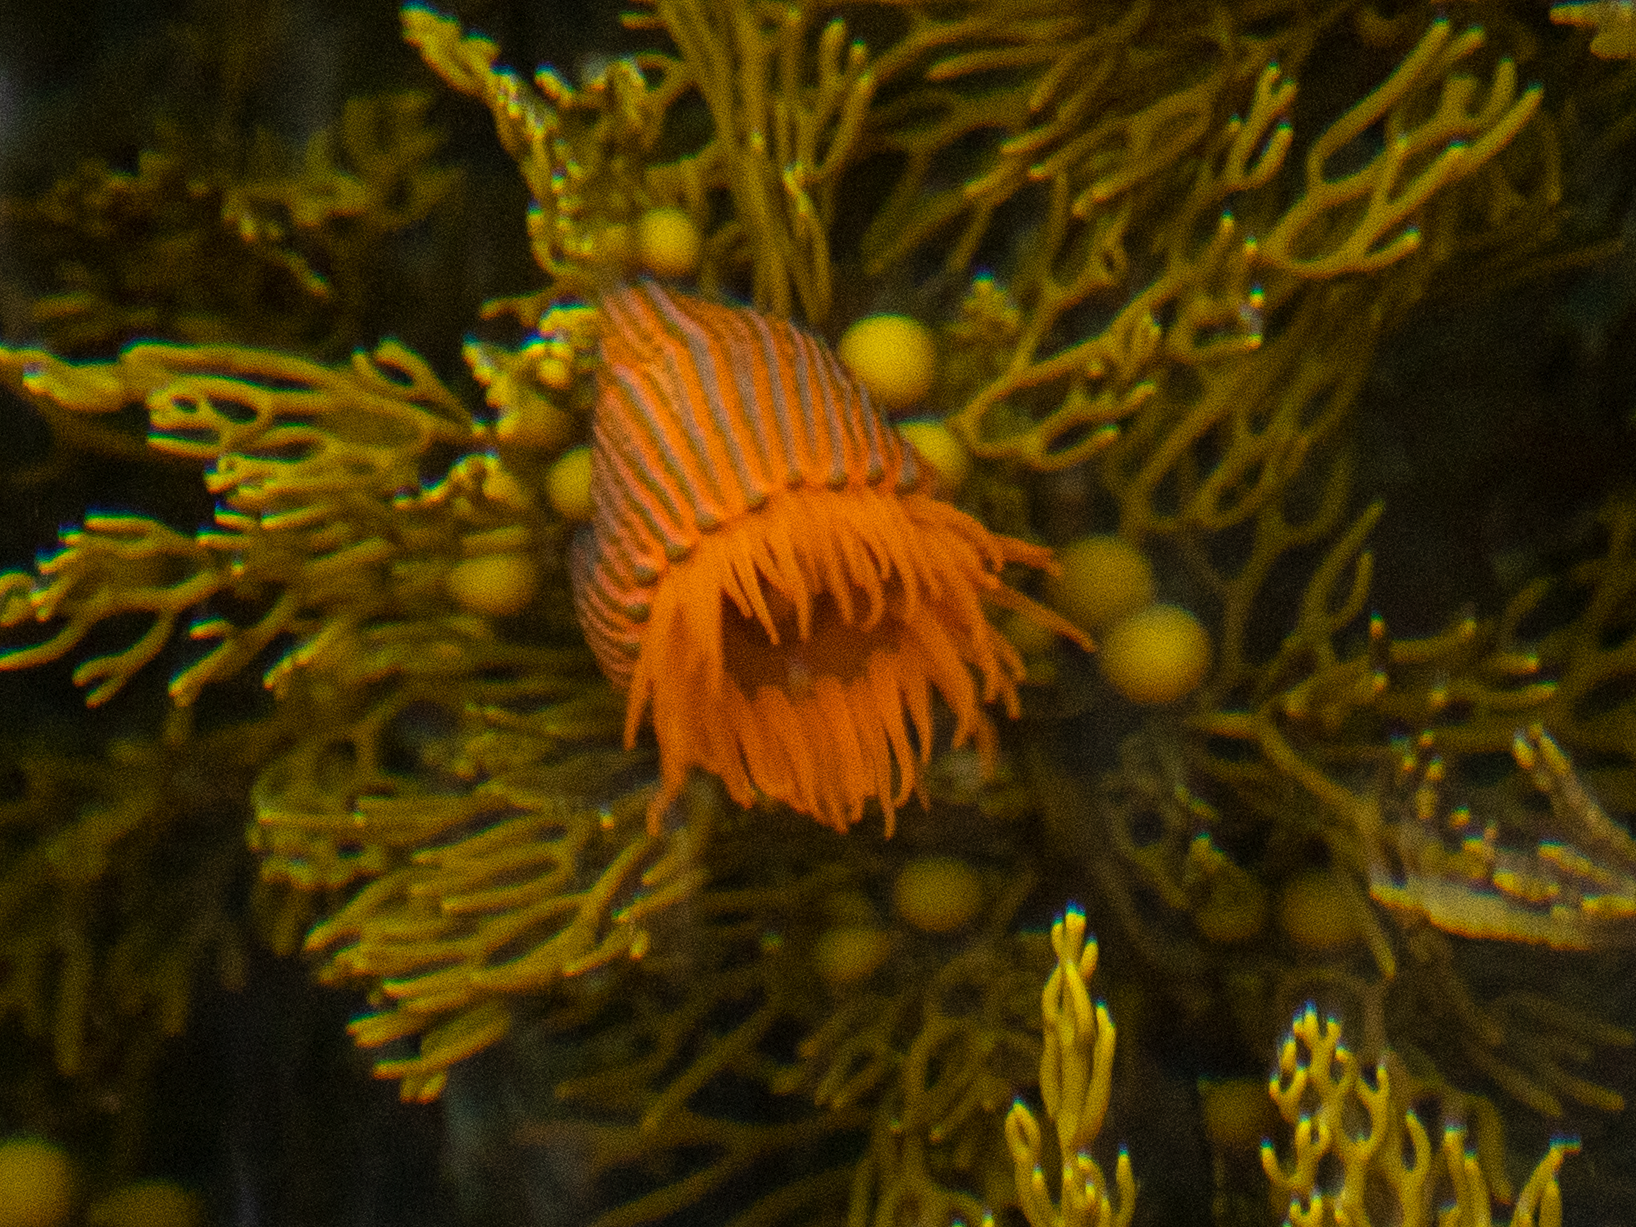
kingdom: Animalia
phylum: Cnidaria
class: Anthozoa
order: Actiniaria
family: Actiniidae
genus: Epiactis
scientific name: Epiactis
